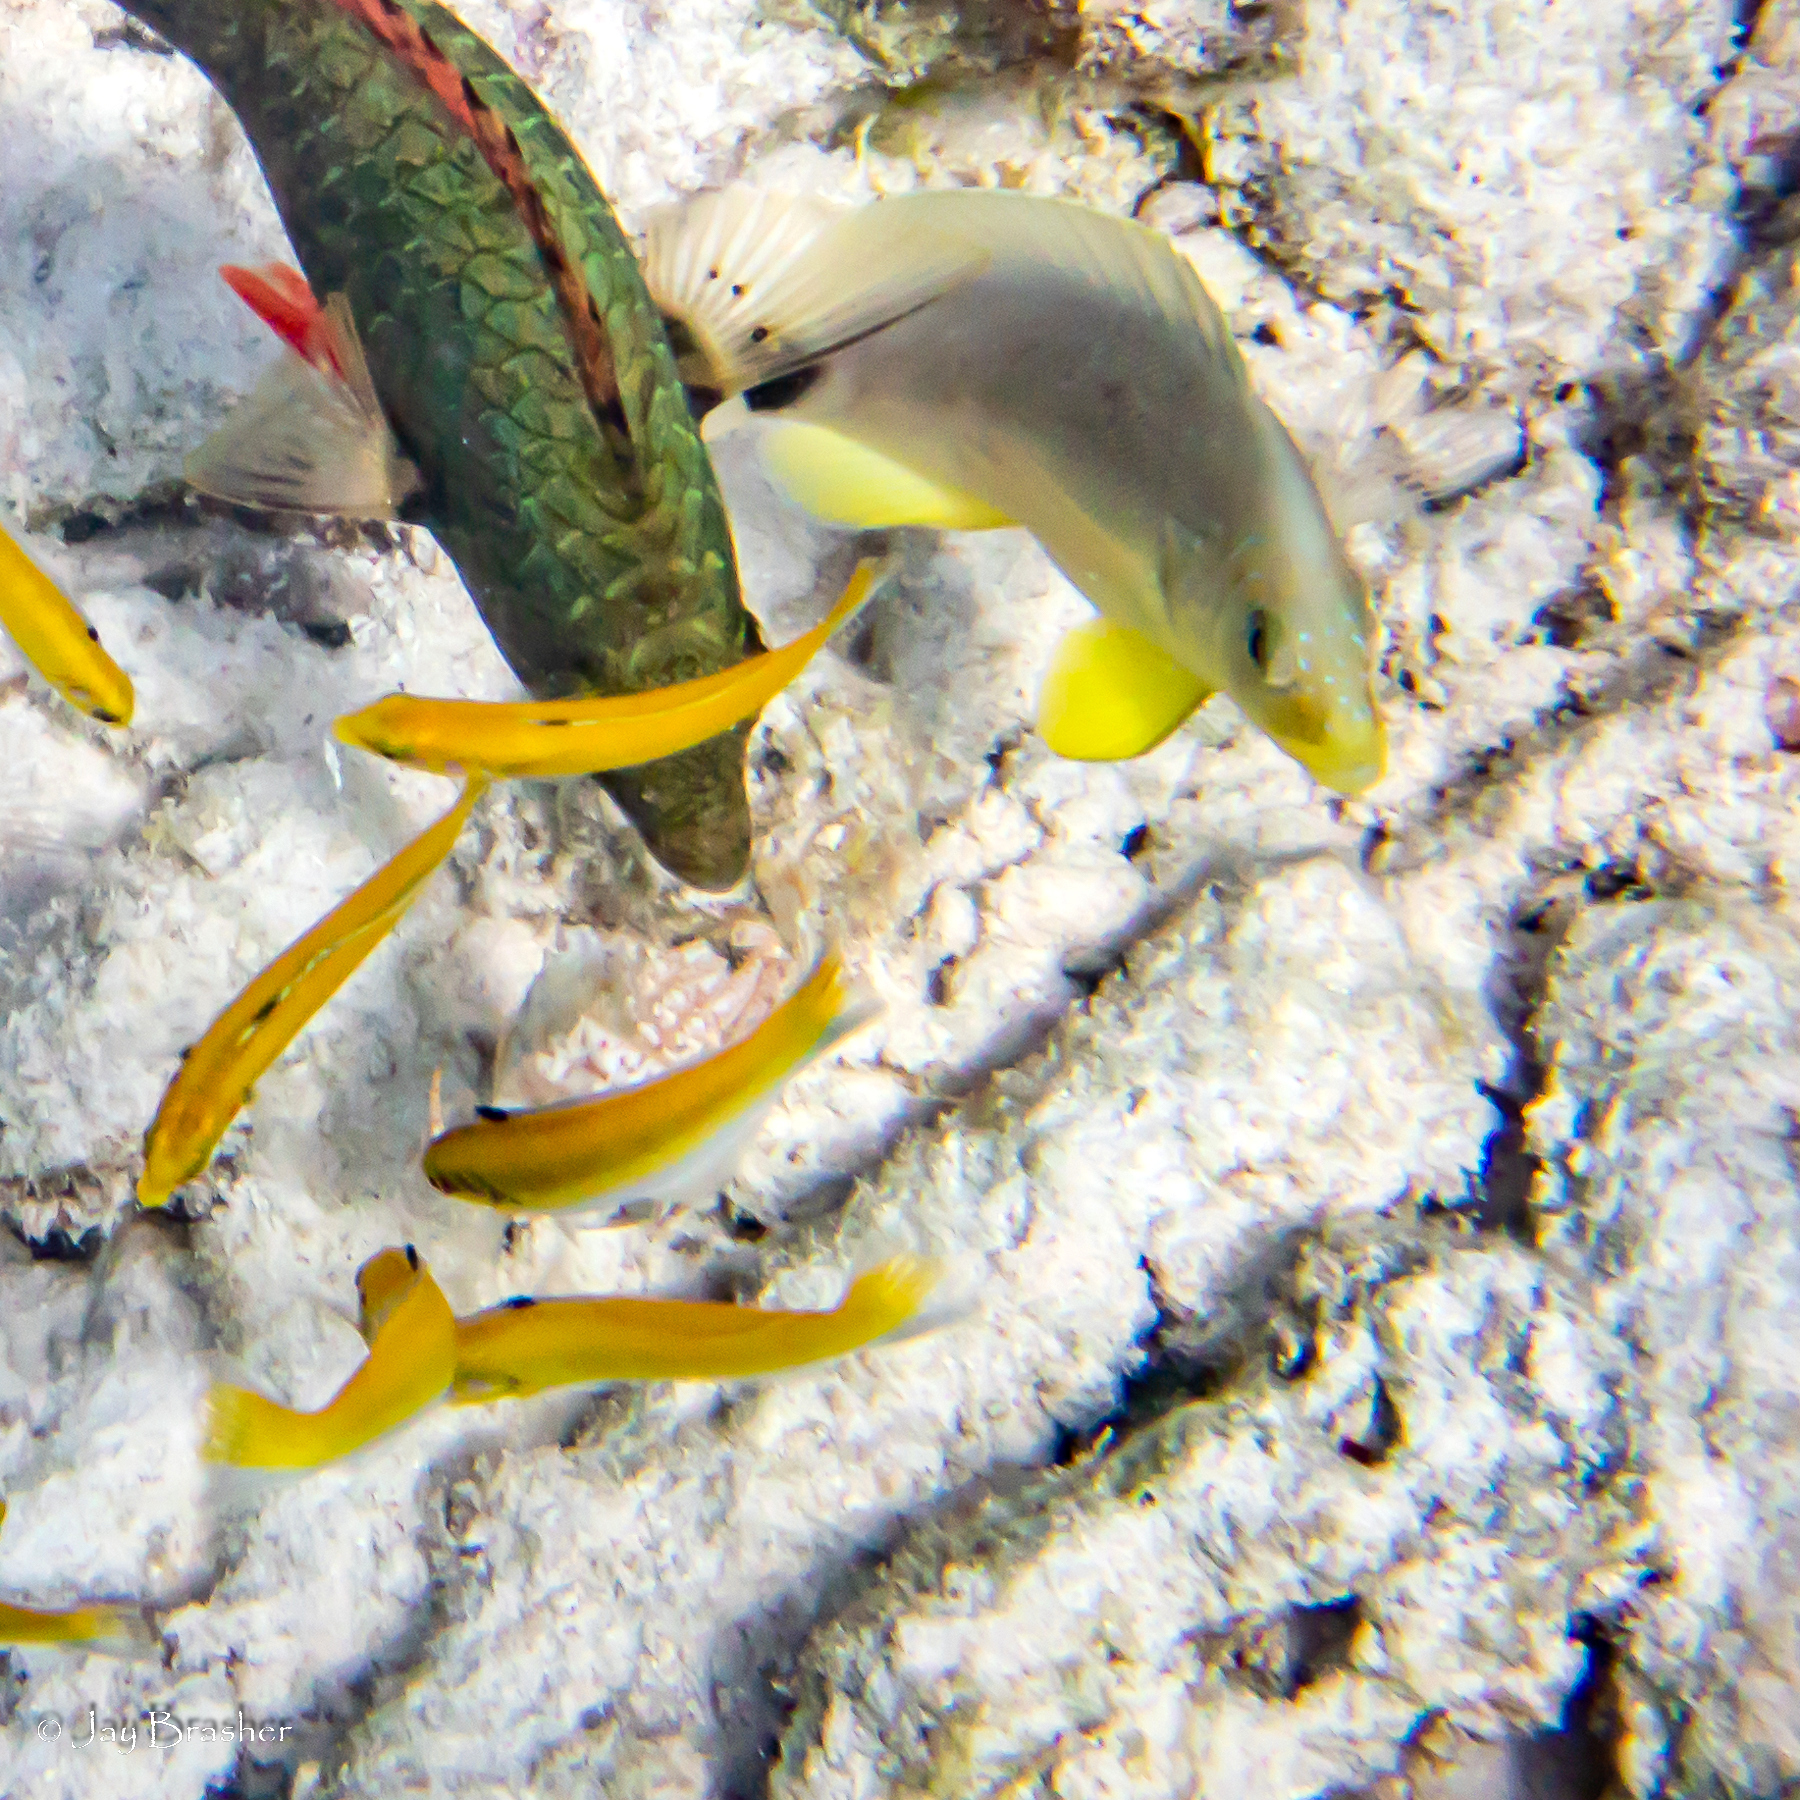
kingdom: Animalia
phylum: Chordata
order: Perciformes
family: Labridae
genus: Thalassoma
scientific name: Thalassoma bifasciatum
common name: Bluehead wrasse
